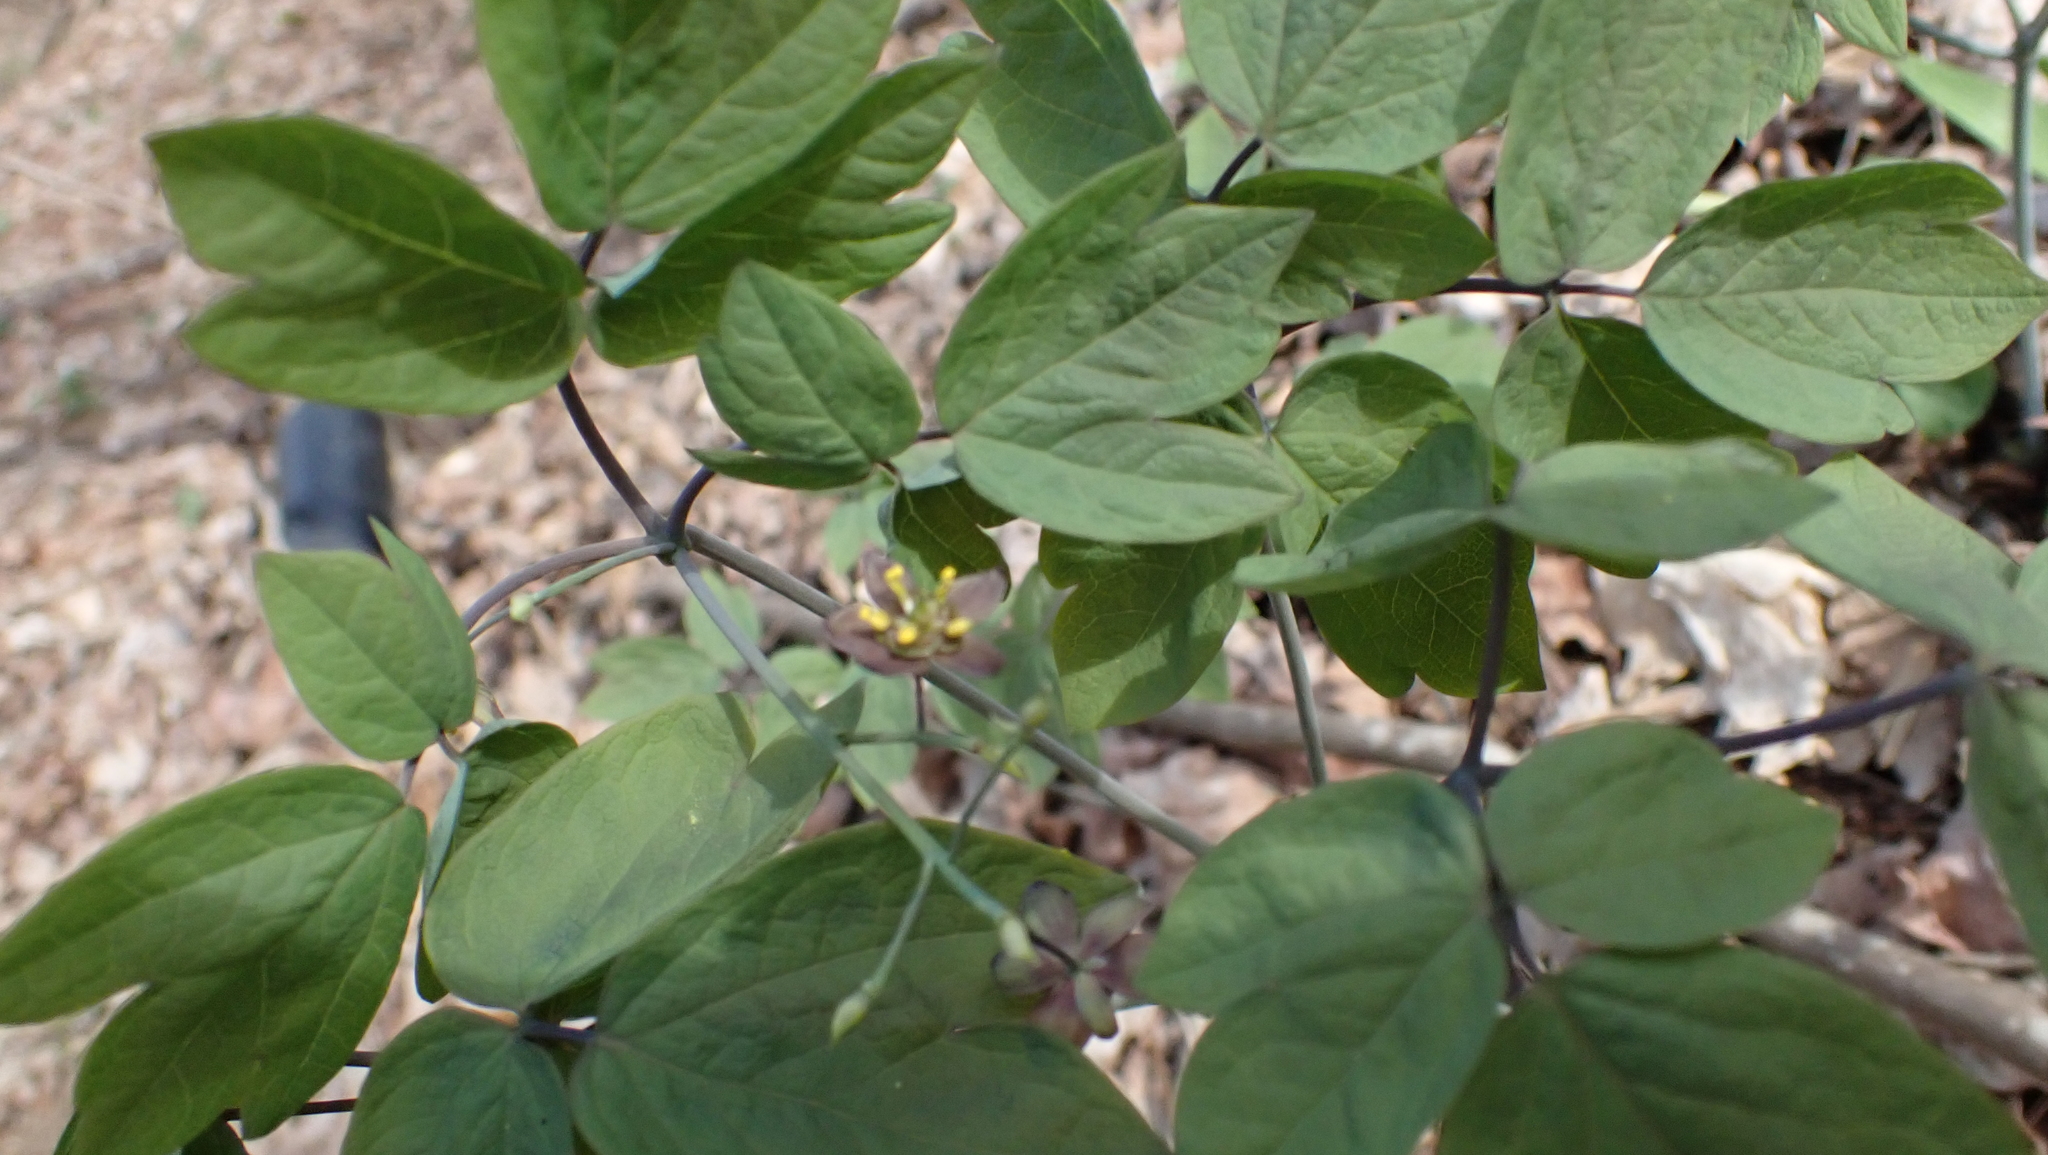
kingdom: Plantae
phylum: Tracheophyta
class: Magnoliopsida
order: Ranunculales
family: Berberidaceae
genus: Caulophyllum
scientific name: Caulophyllum giganteum
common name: Blue cohosh
